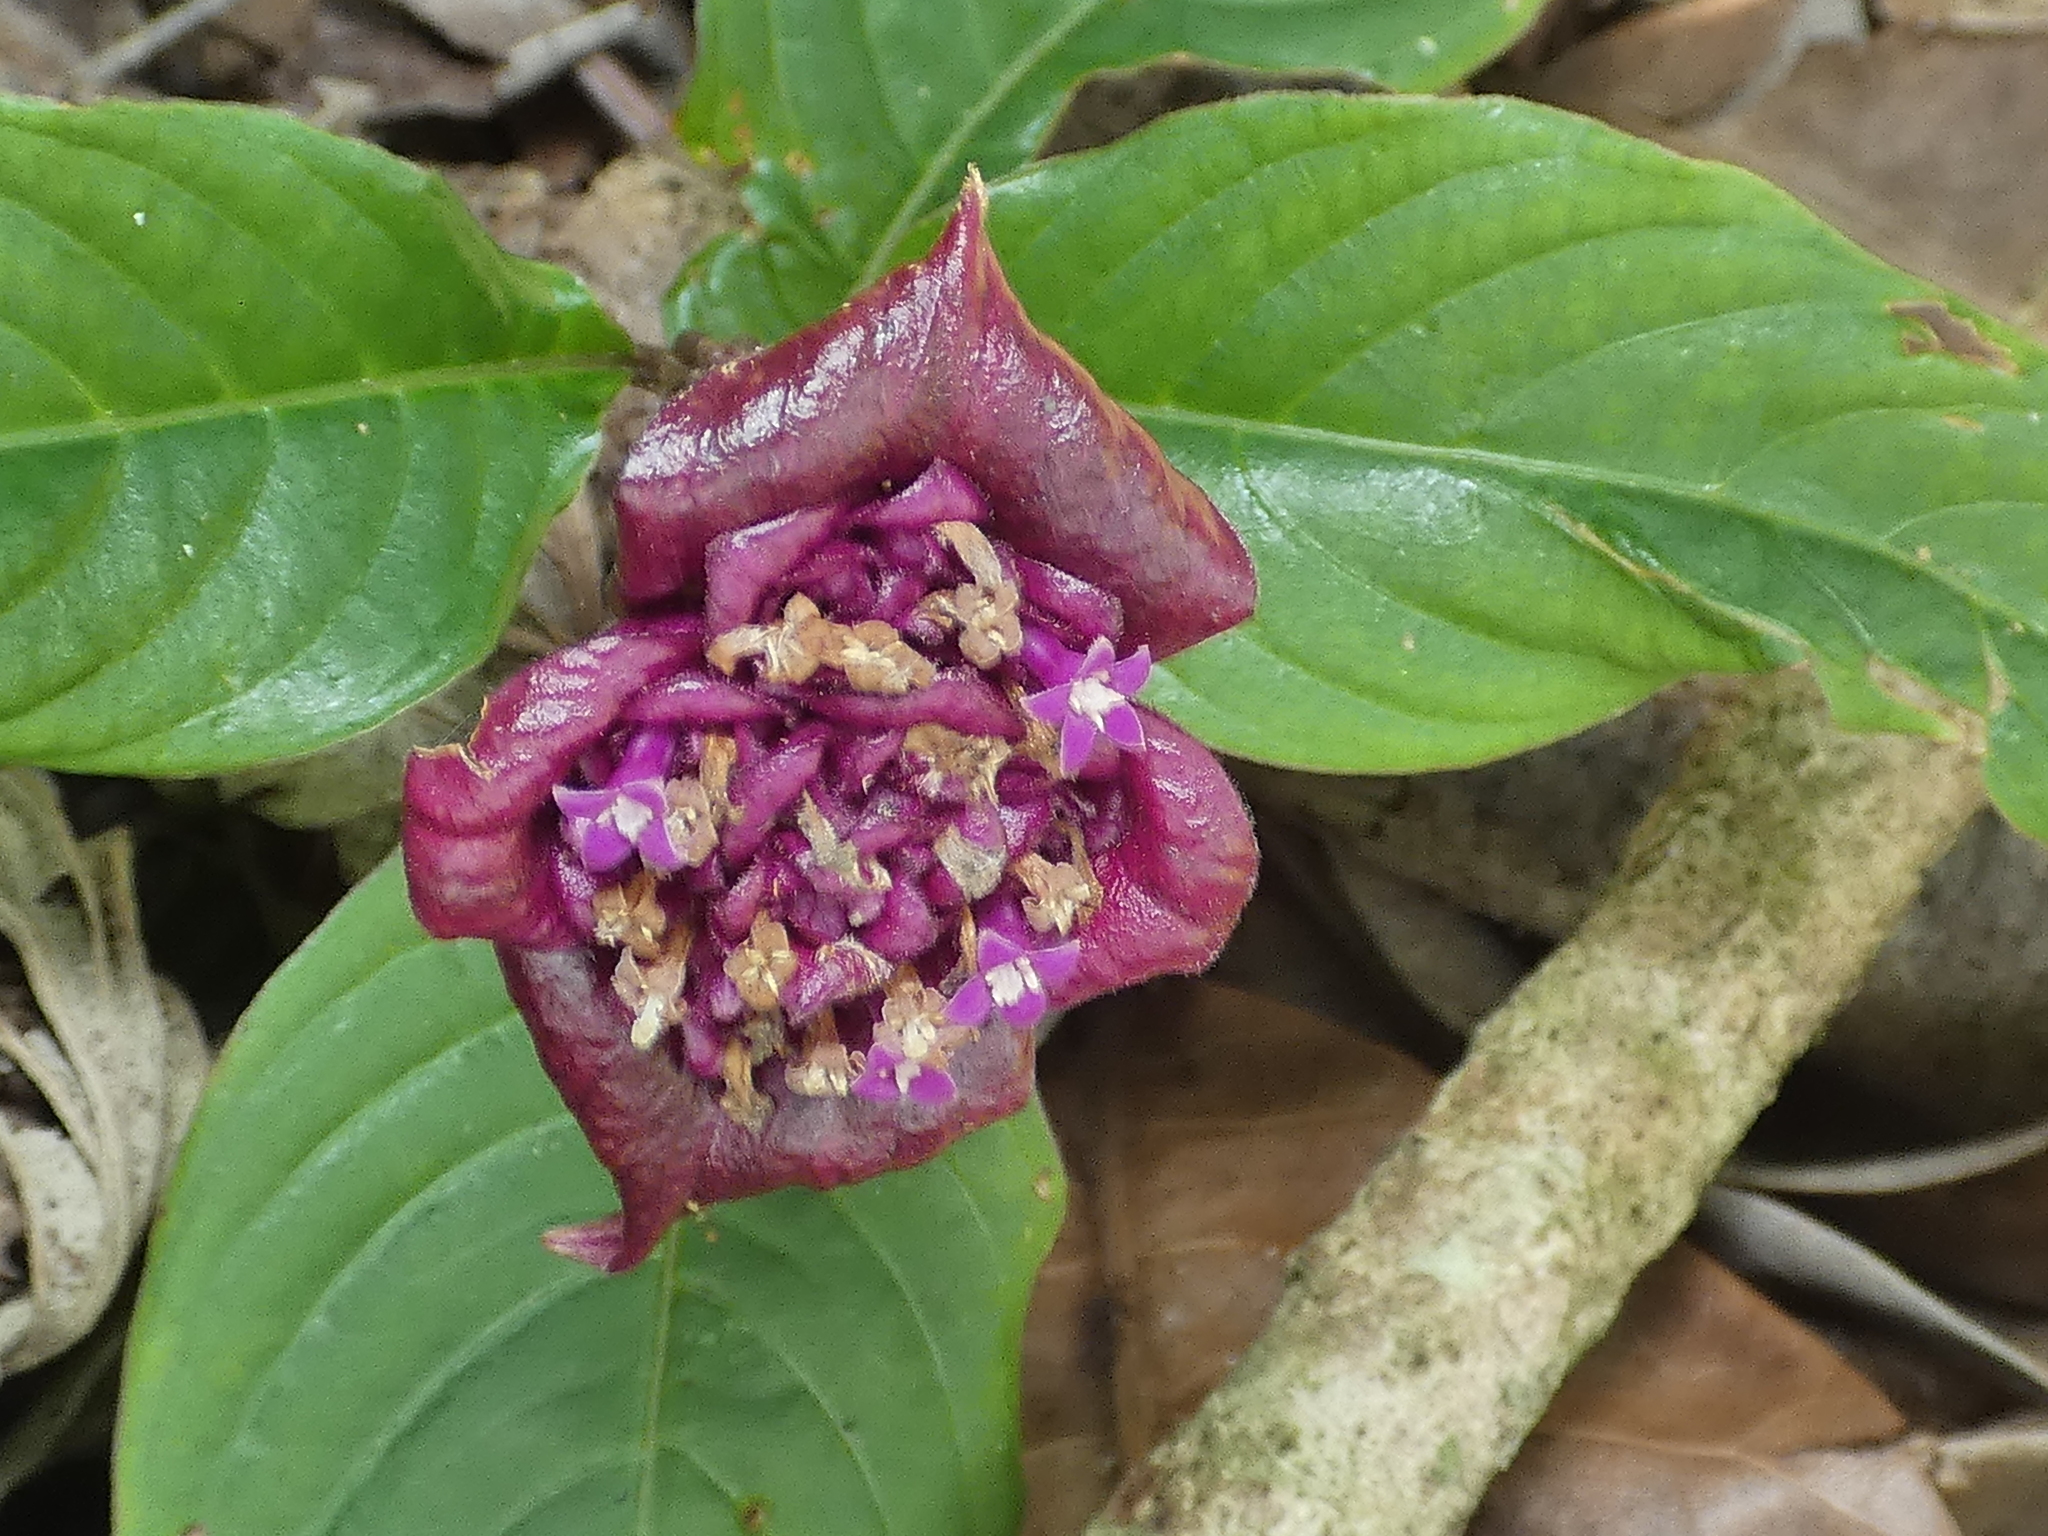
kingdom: Plantae
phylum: Tracheophyta
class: Magnoliopsida
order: Gentianales
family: Rubiaceae
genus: Palicourea
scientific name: Palicourea colorata
